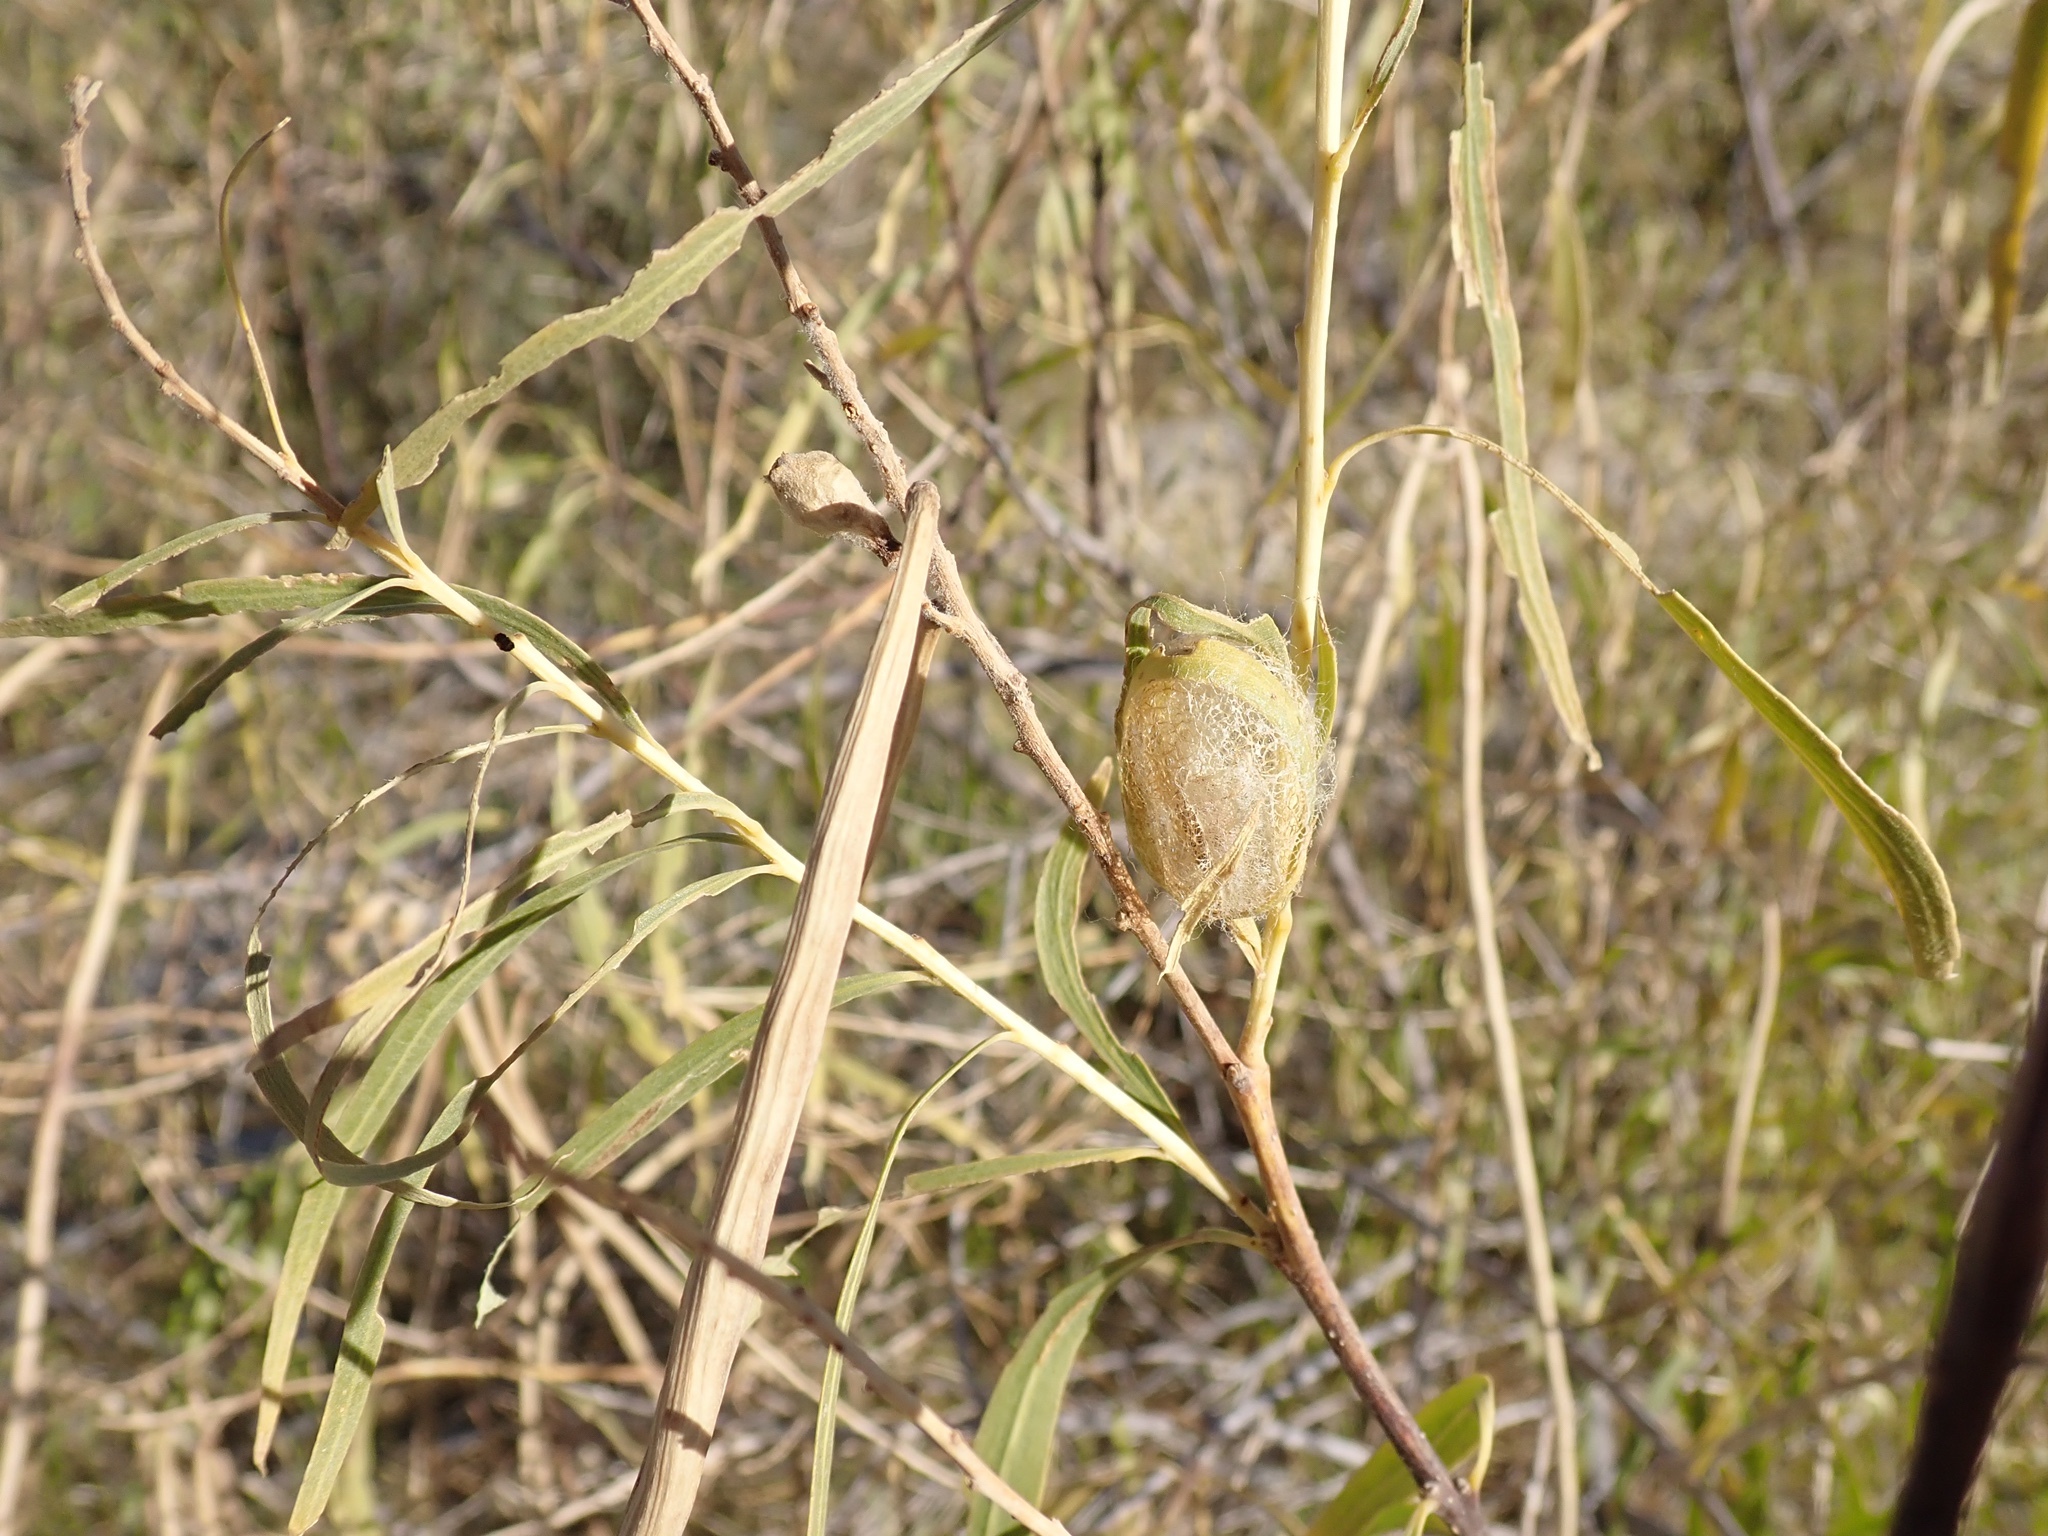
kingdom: Plantae
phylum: Tracheophyta
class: Magnoliopsida
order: Malpighiales
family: Salicaceae
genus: Salix
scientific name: Salix exigua
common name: Coyote willow
